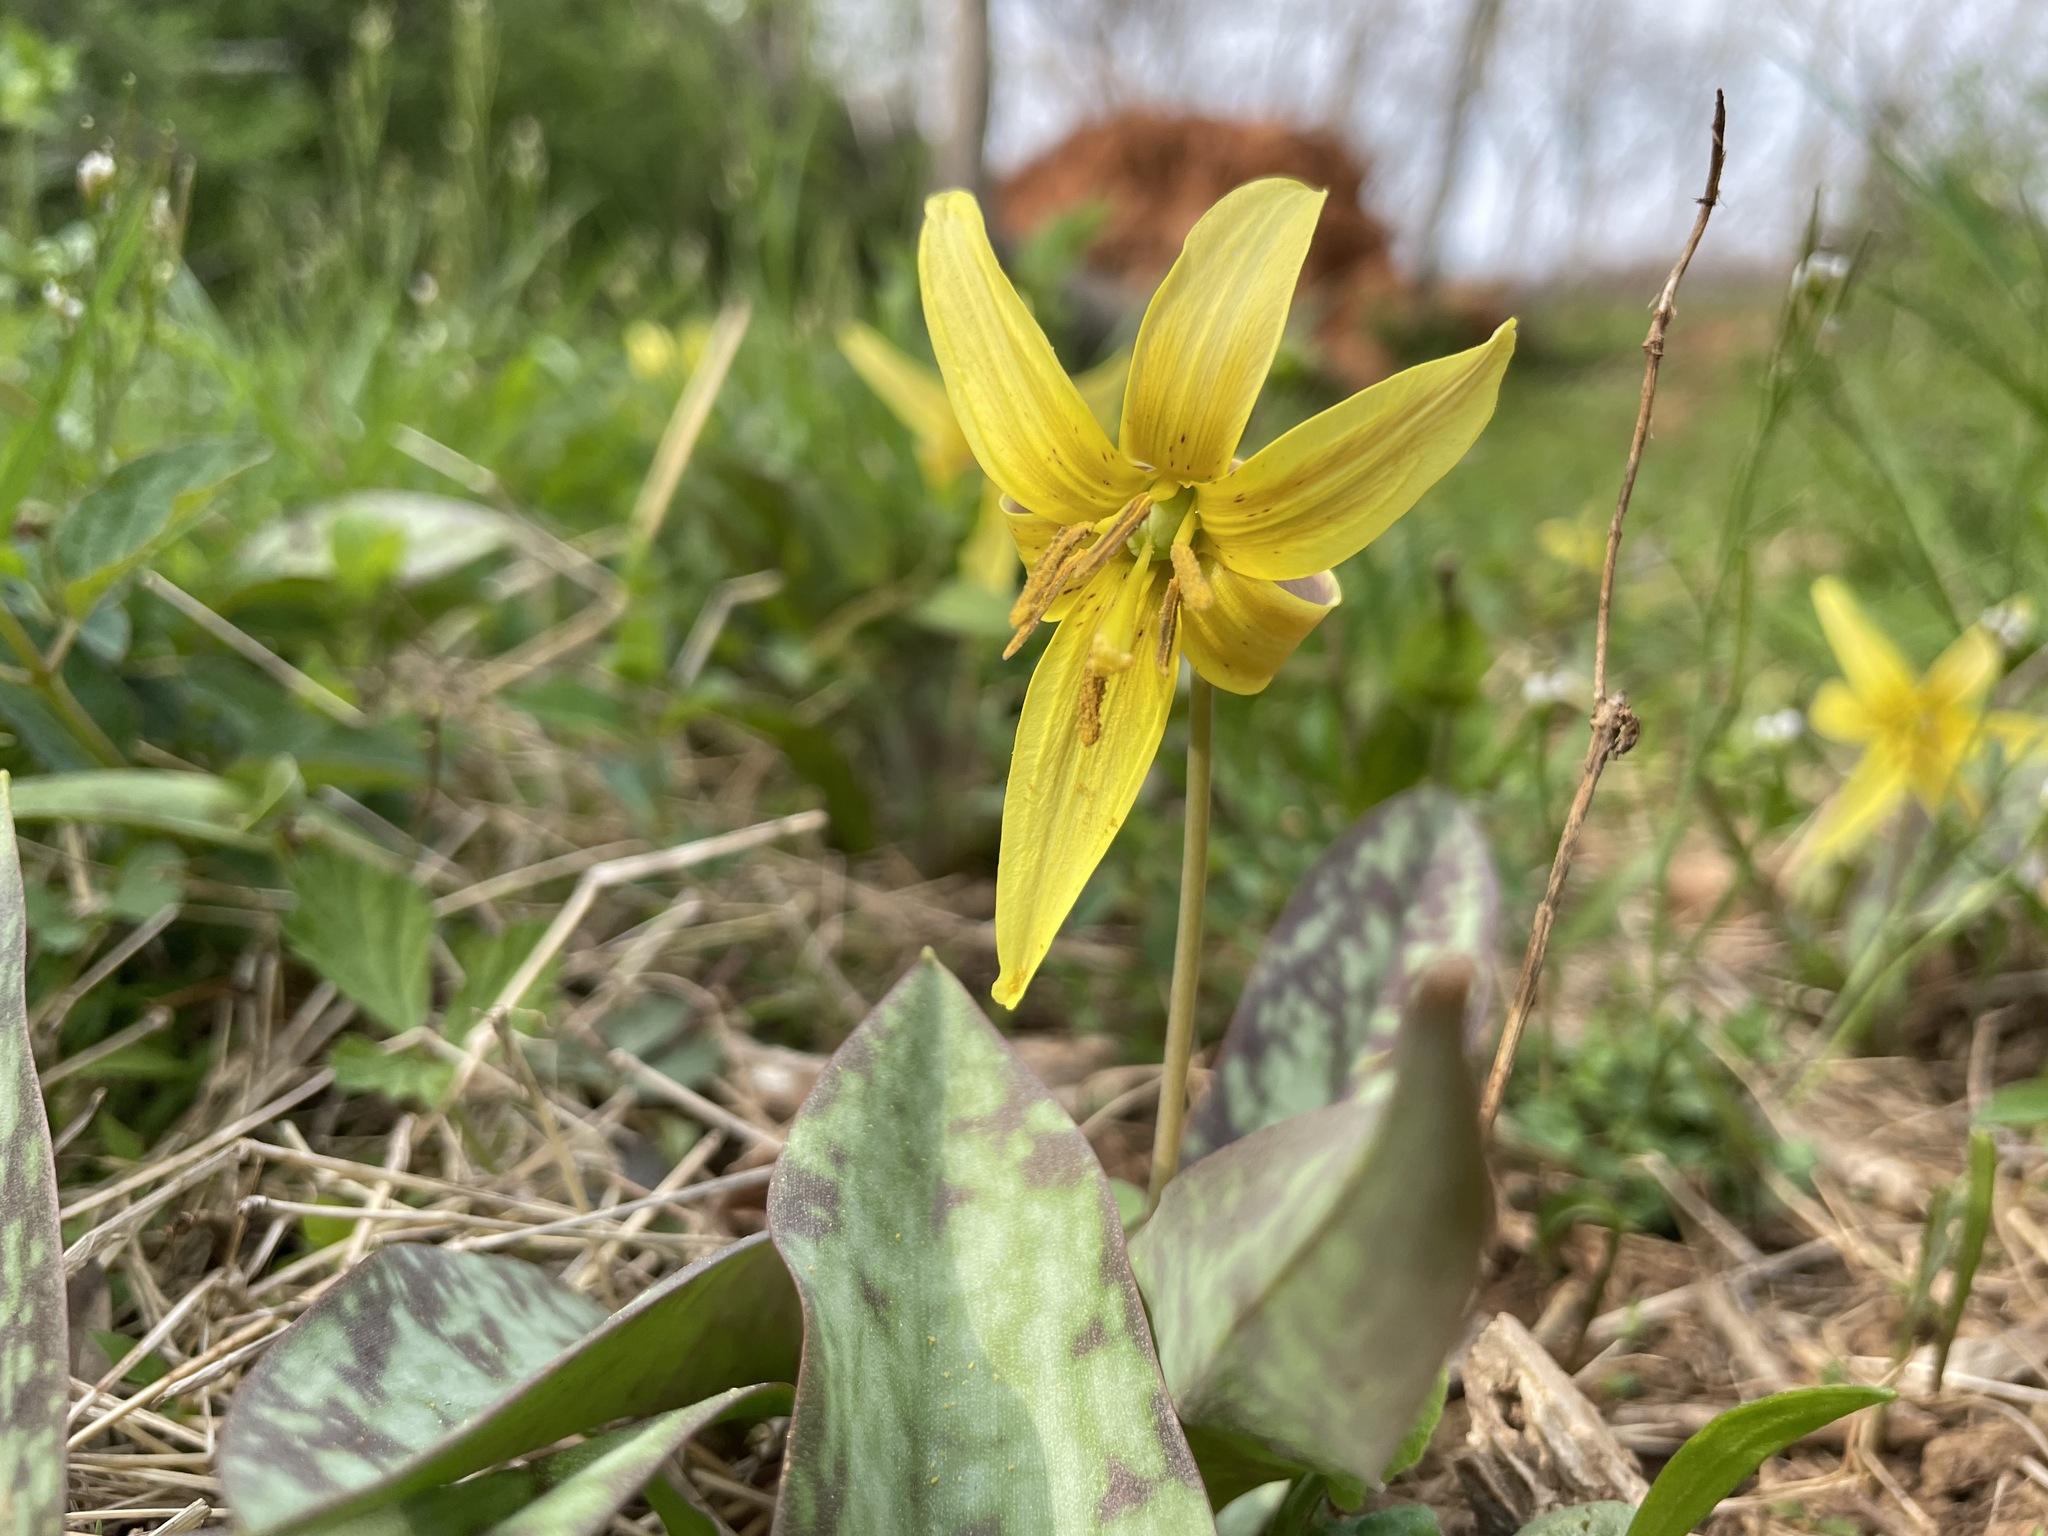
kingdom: Plantae
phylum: Tracheophyta
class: Liliopsida
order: Liliales
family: Liliaceae
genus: Erythronium
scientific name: Erythronium americanum
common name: Yellow adder's-tongue
